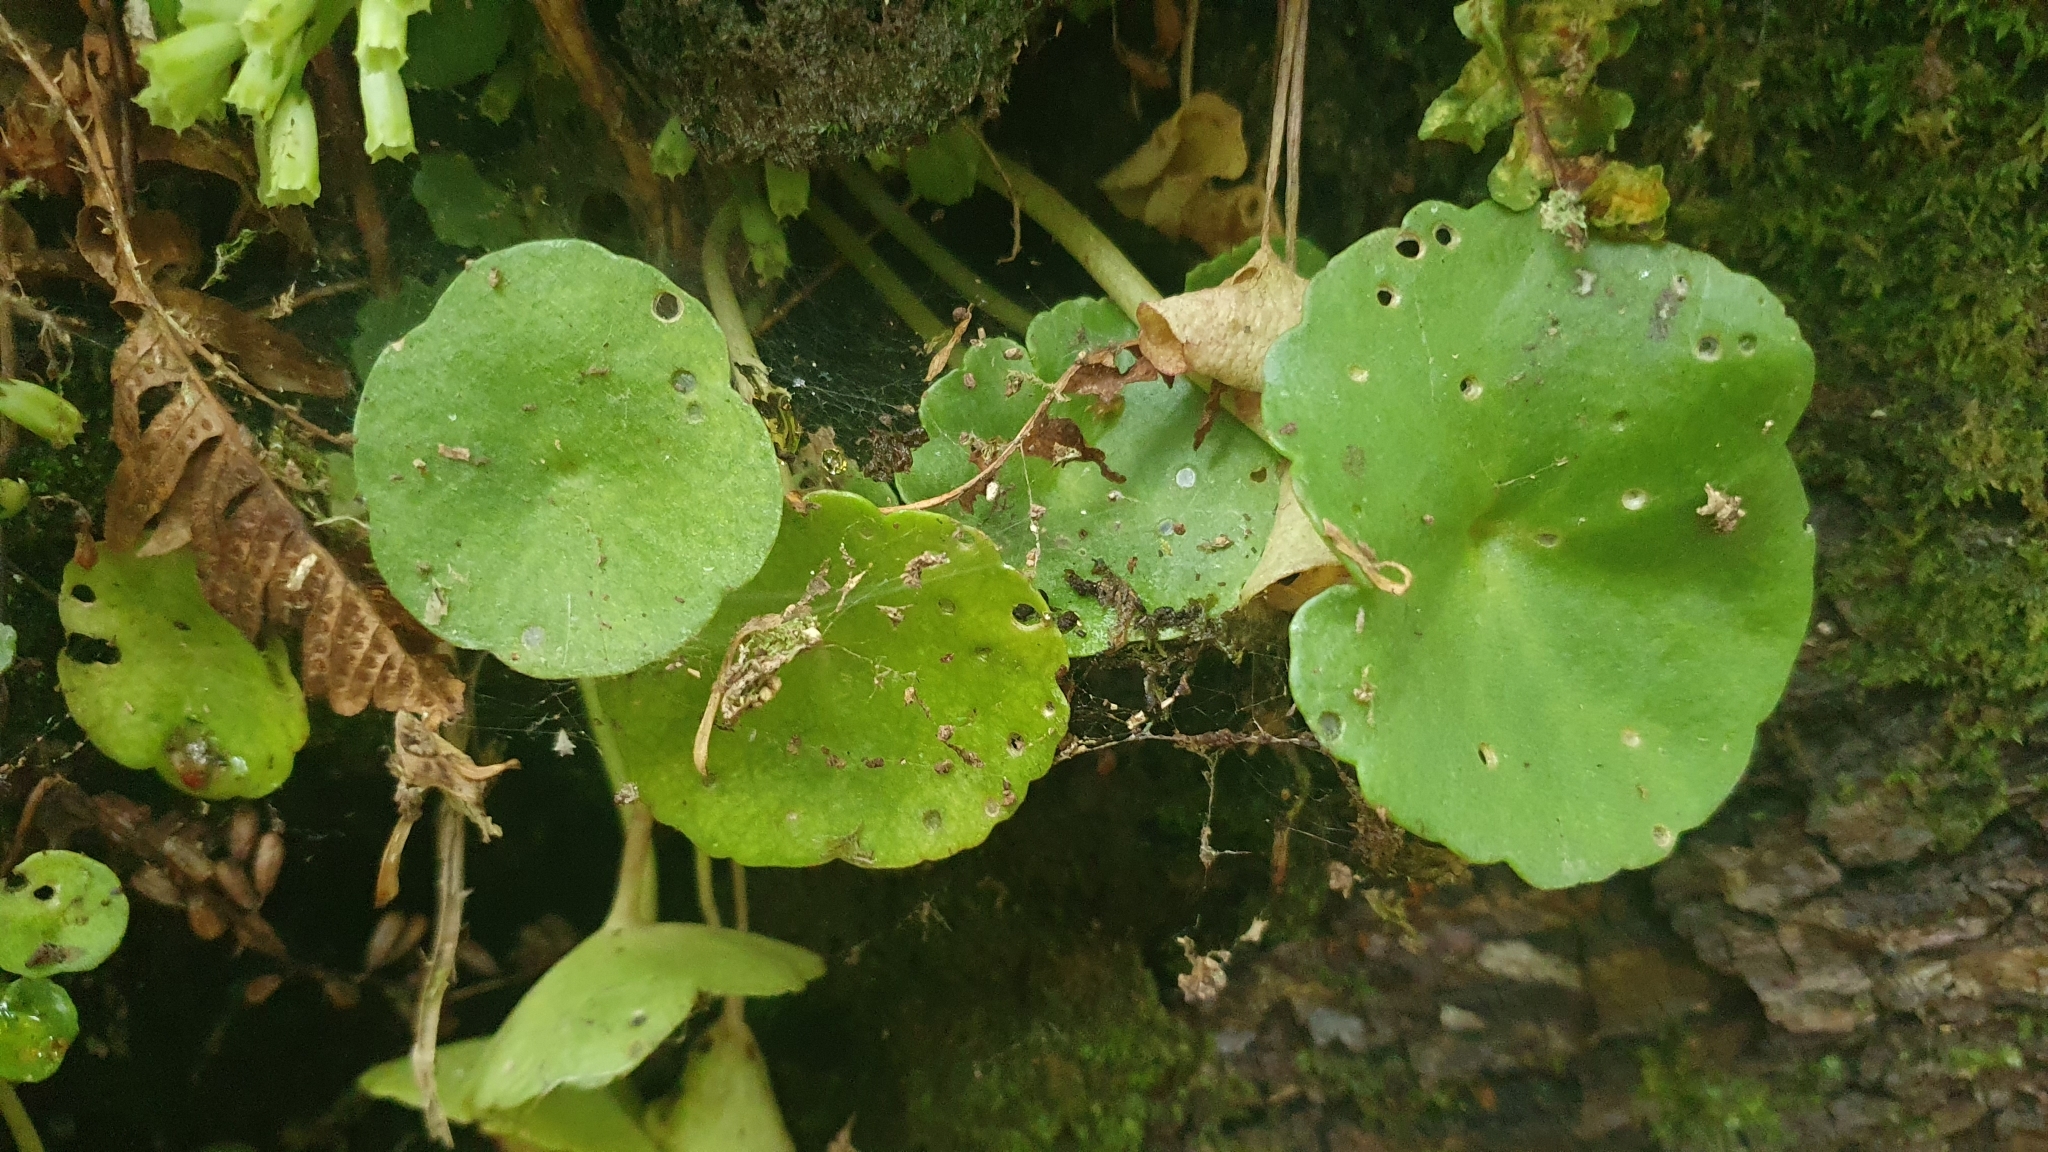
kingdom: Plantae
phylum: Tracheophyta
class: Magnoliopsida
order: Saxifragales
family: Crassulaceae
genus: Umbilicus
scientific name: Umbilicus rupestris
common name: Navelwort
